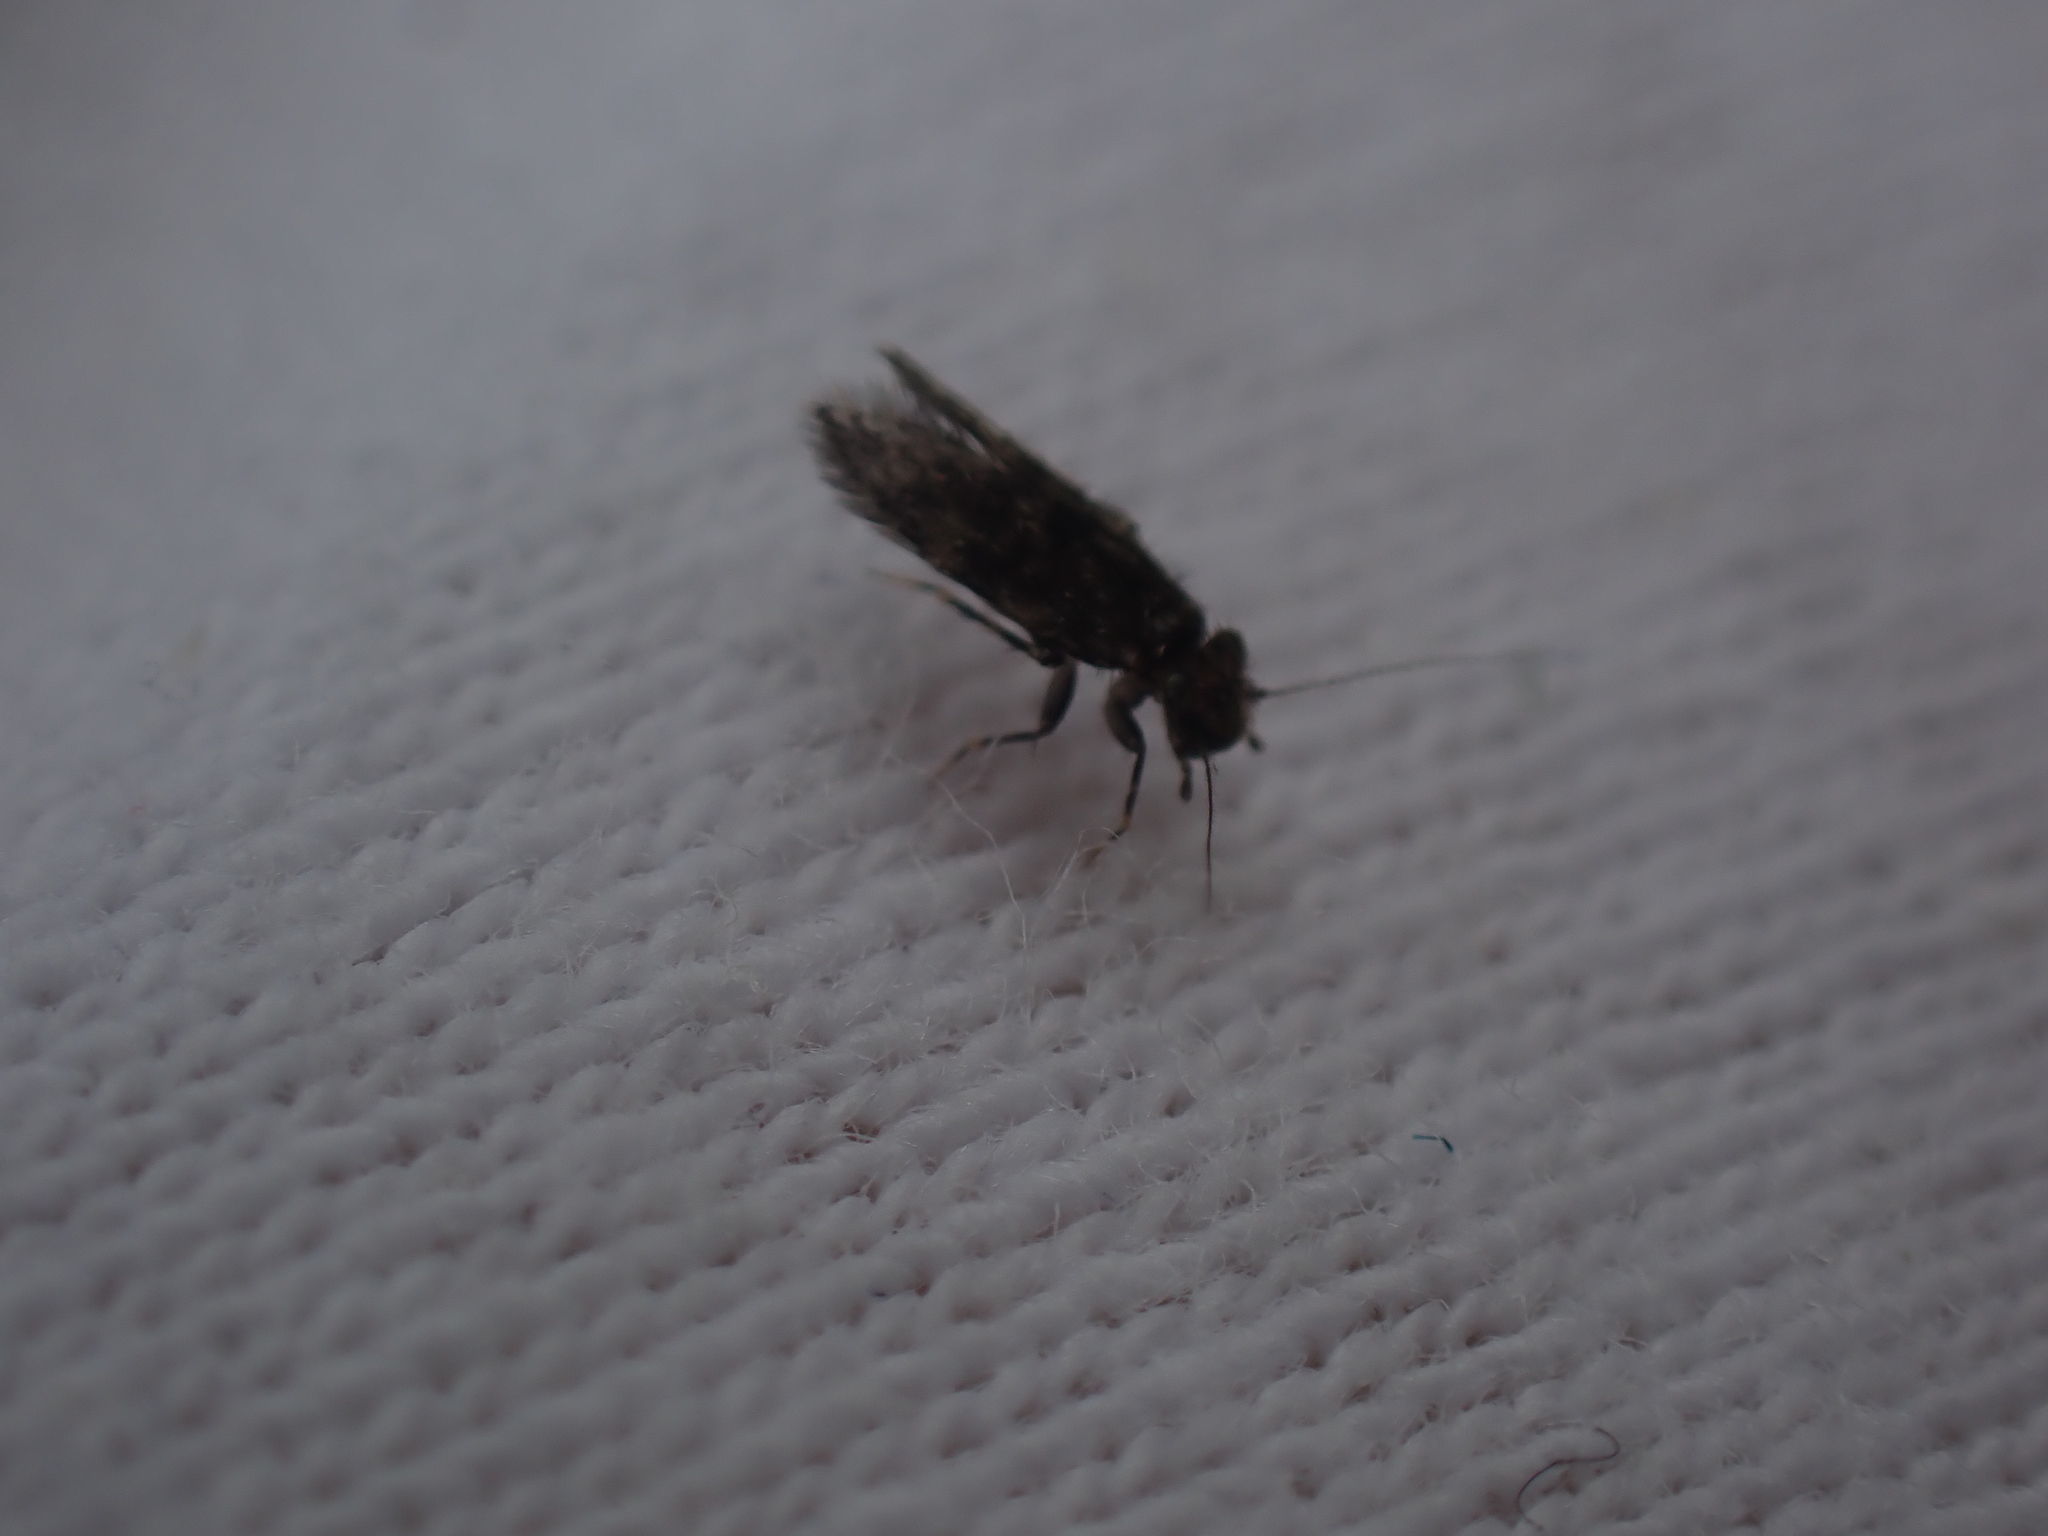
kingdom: Animalia
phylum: Arthropoda
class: Insecta
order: Psocodea
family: Lepidopsocidae
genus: Echmepteryx
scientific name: Echmepteryx hageni
